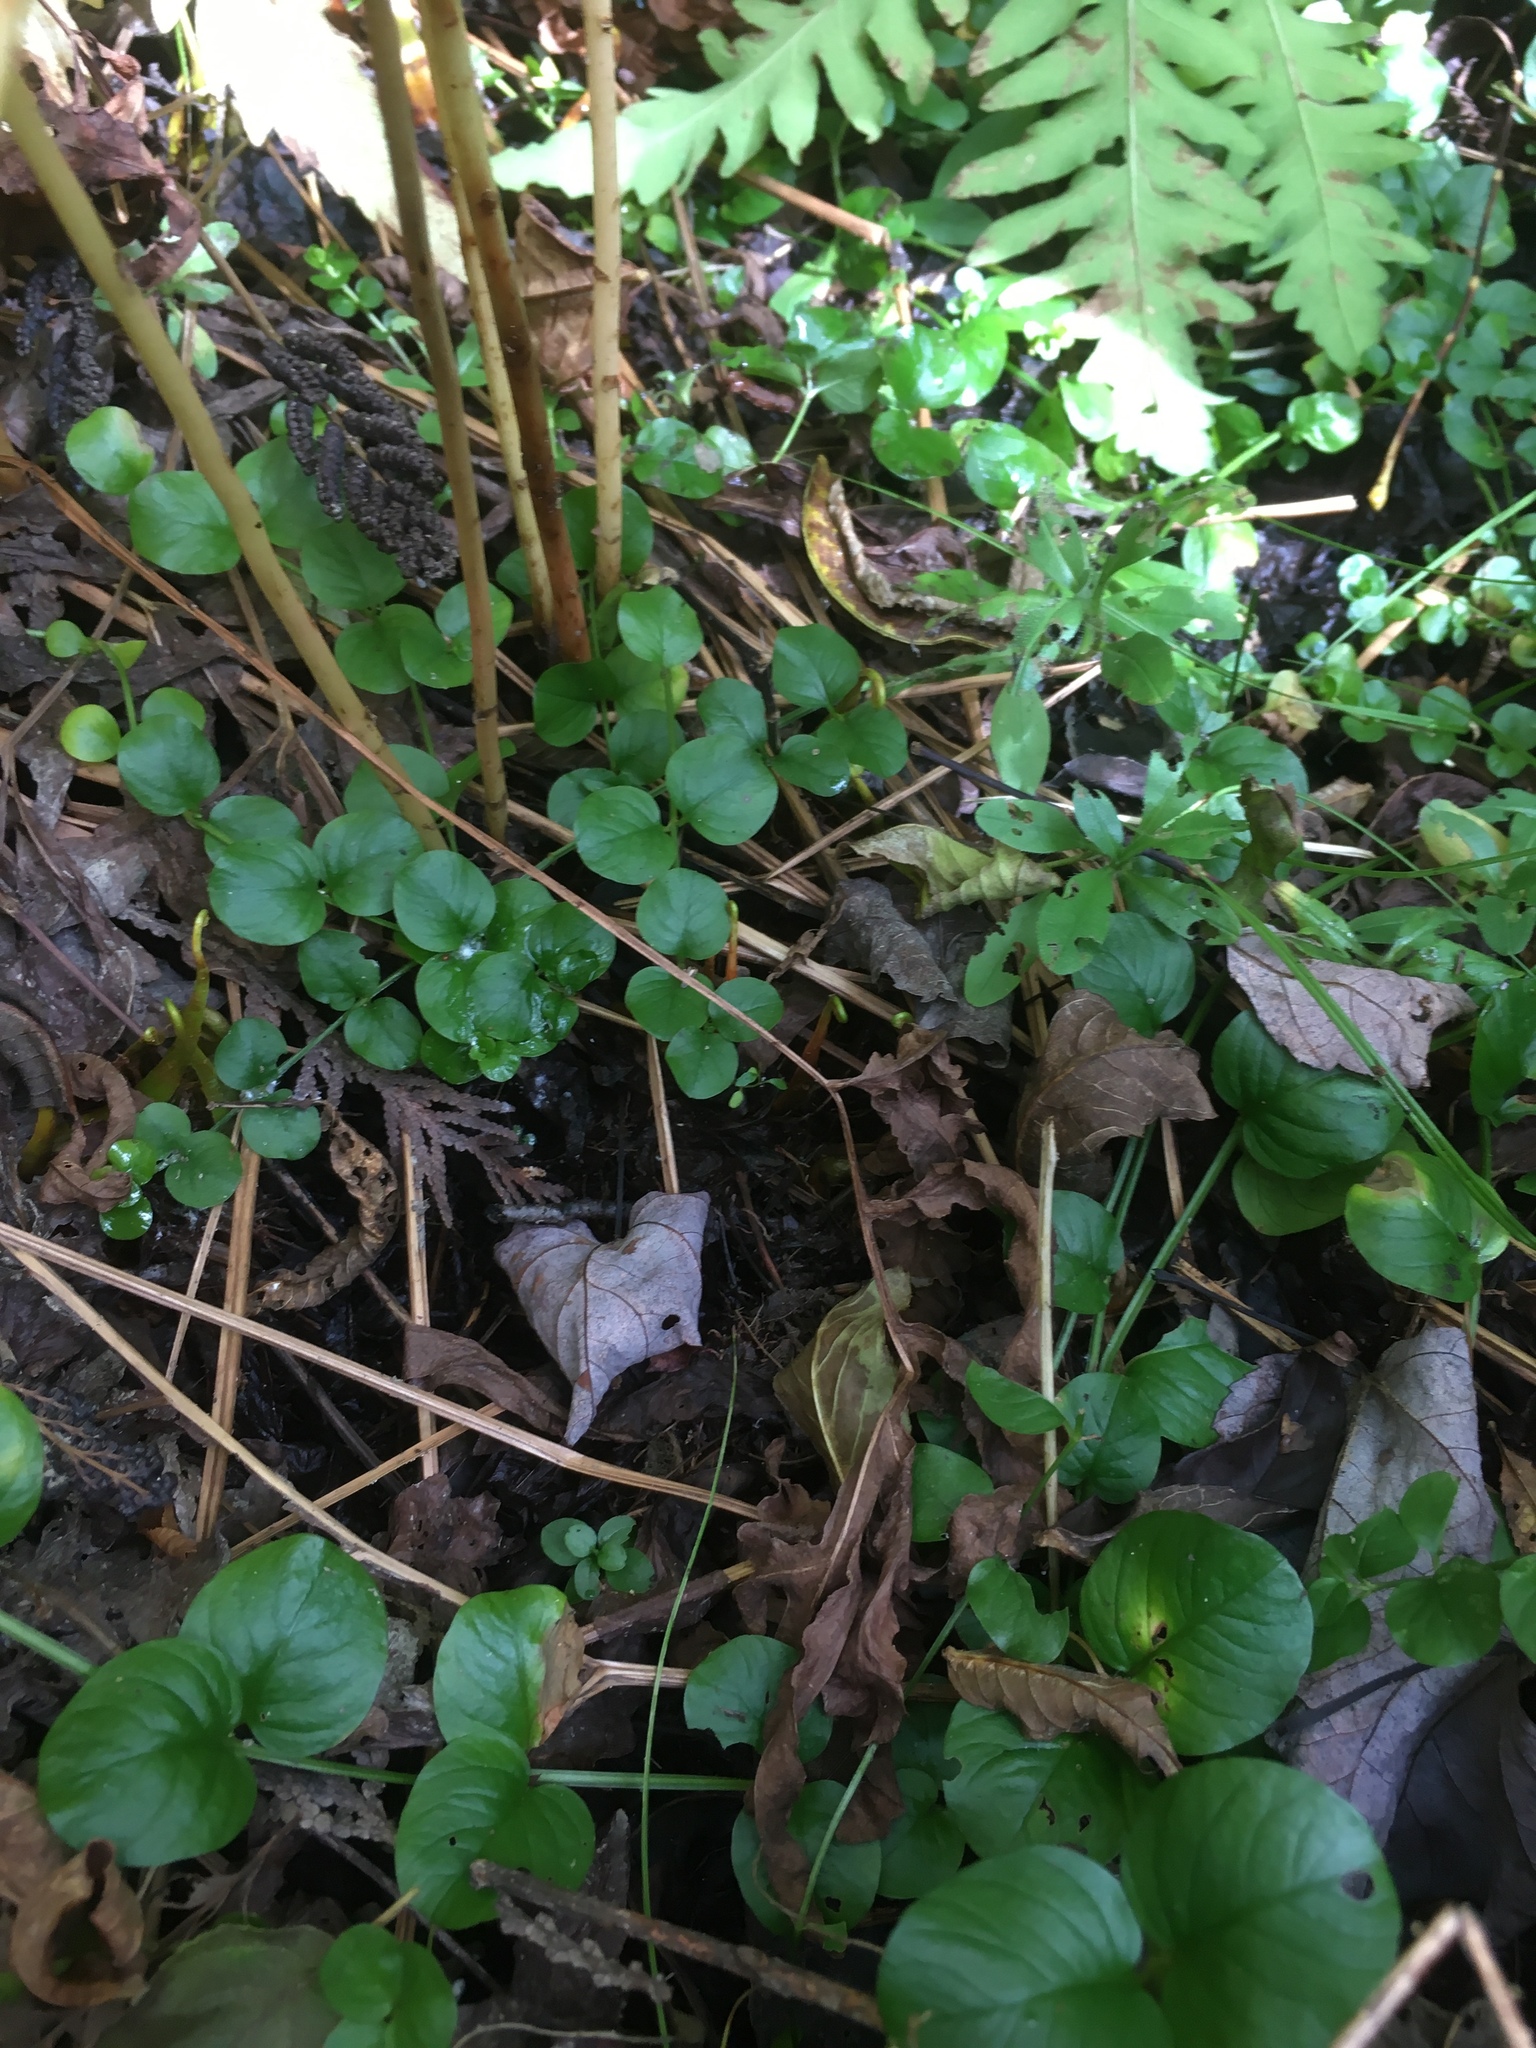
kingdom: Plantae
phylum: Tracheophyta
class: Magnoliopsida
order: Ericales
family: Primulaceae
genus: Lysimachia
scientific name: Lysimachia nummularia
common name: Moneywort
